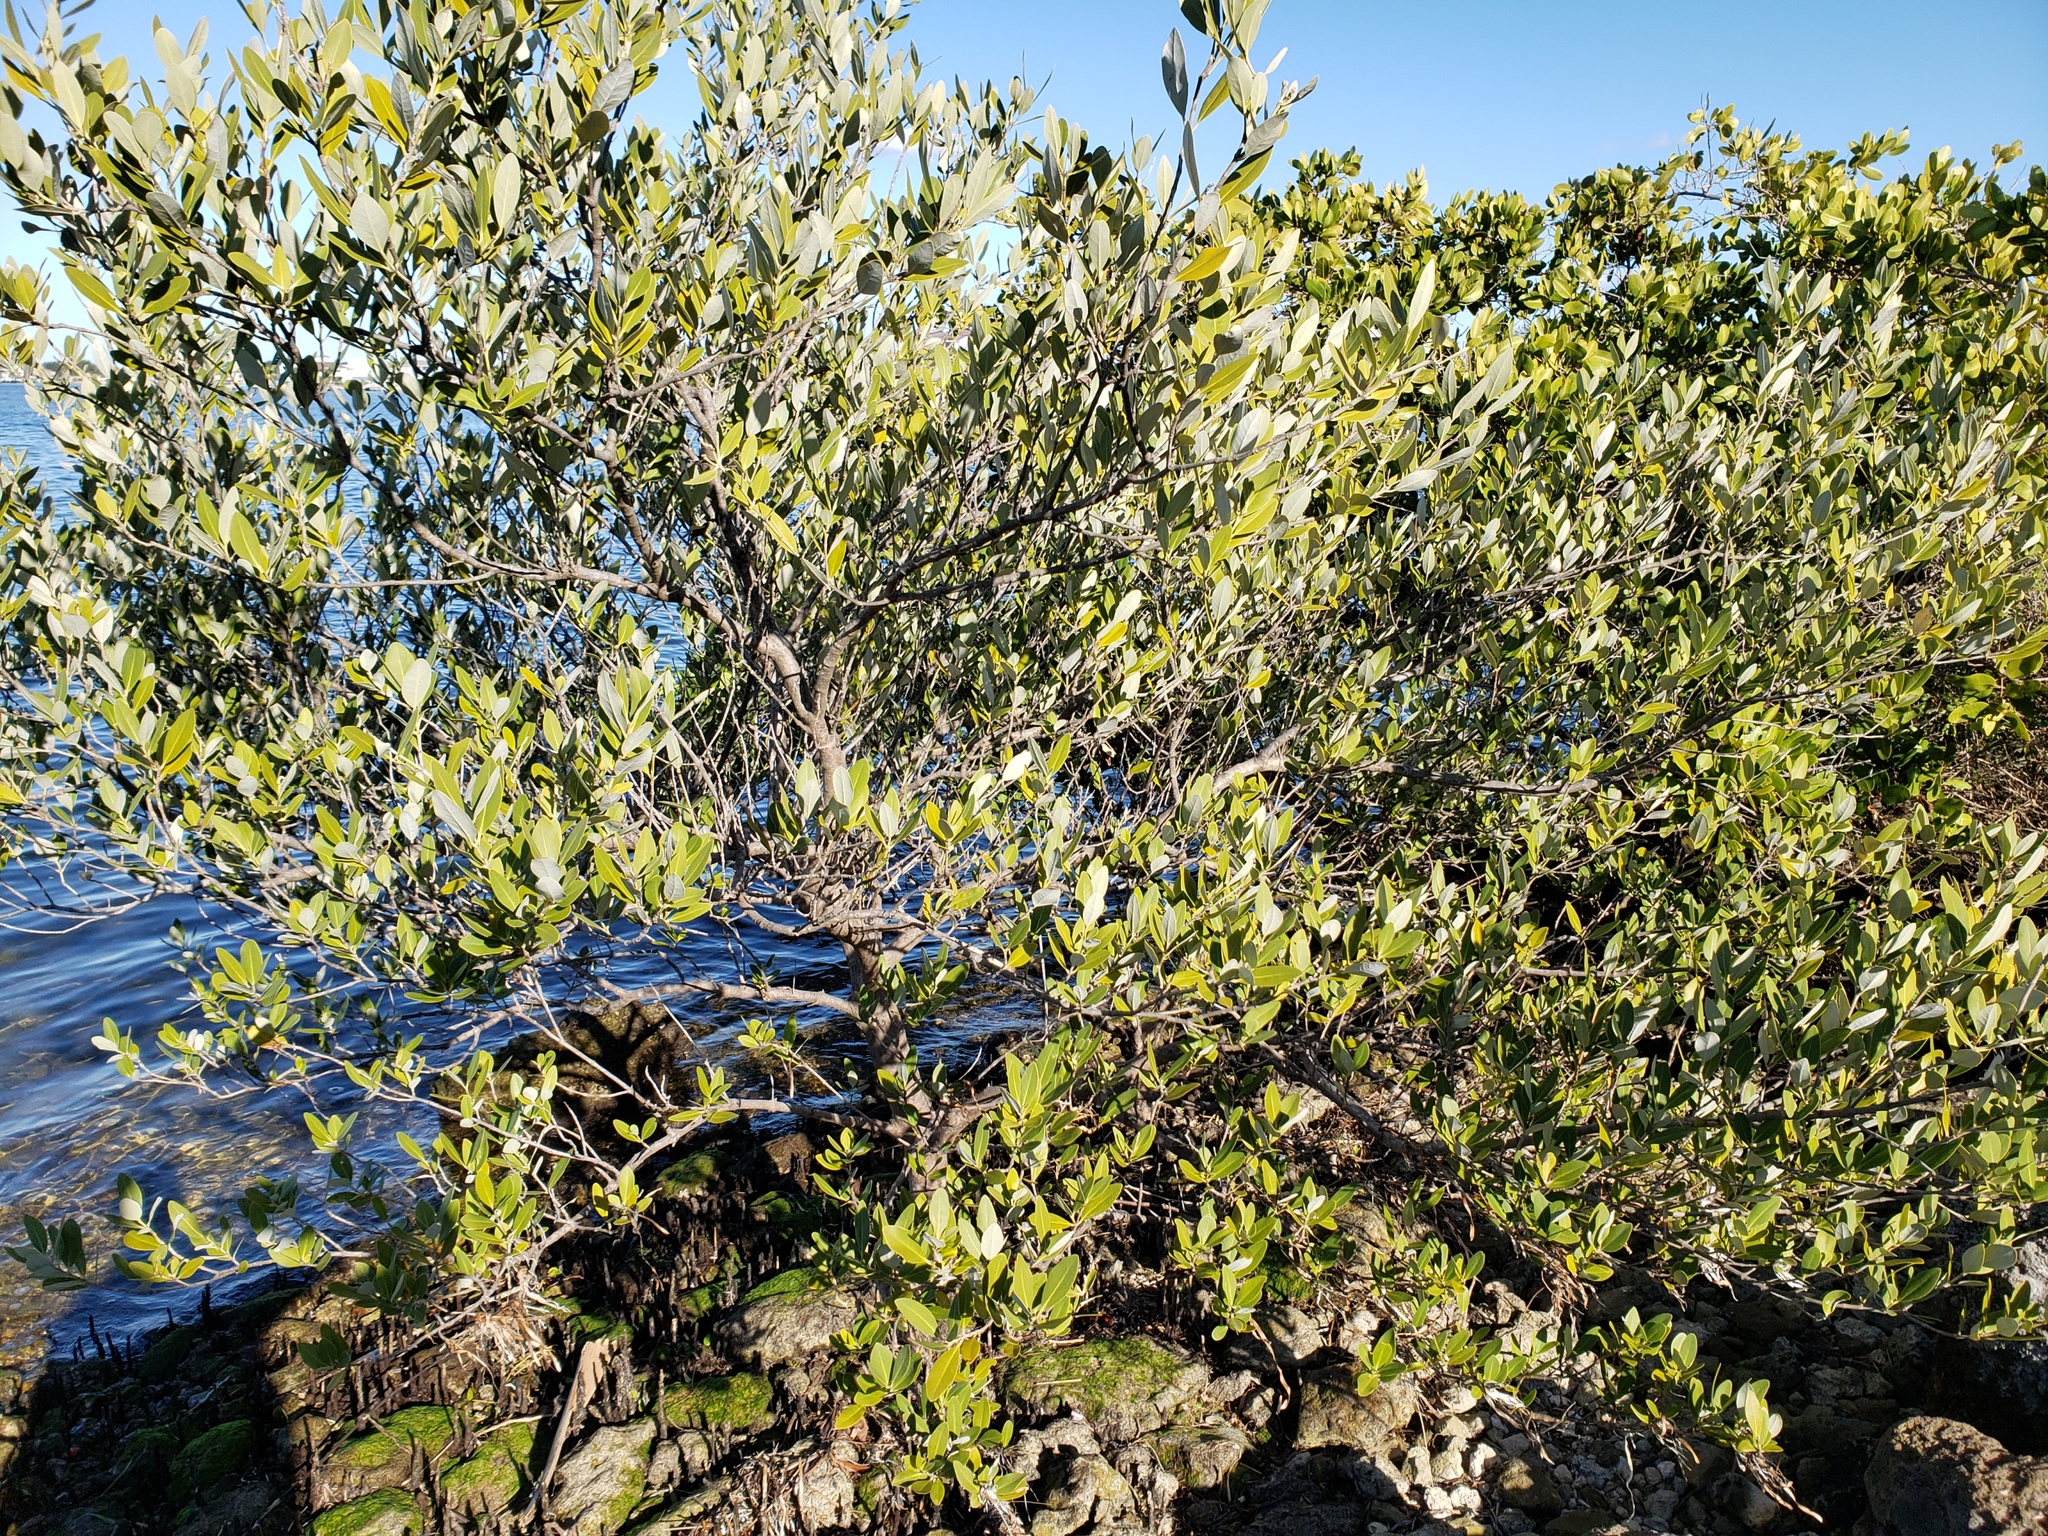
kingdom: Plantae
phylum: Tracheophyta
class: Magnoliopsida
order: Lamiales
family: Acanthaceae
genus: Avicennia
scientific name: Avicennia germinans
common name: Black mangrove
